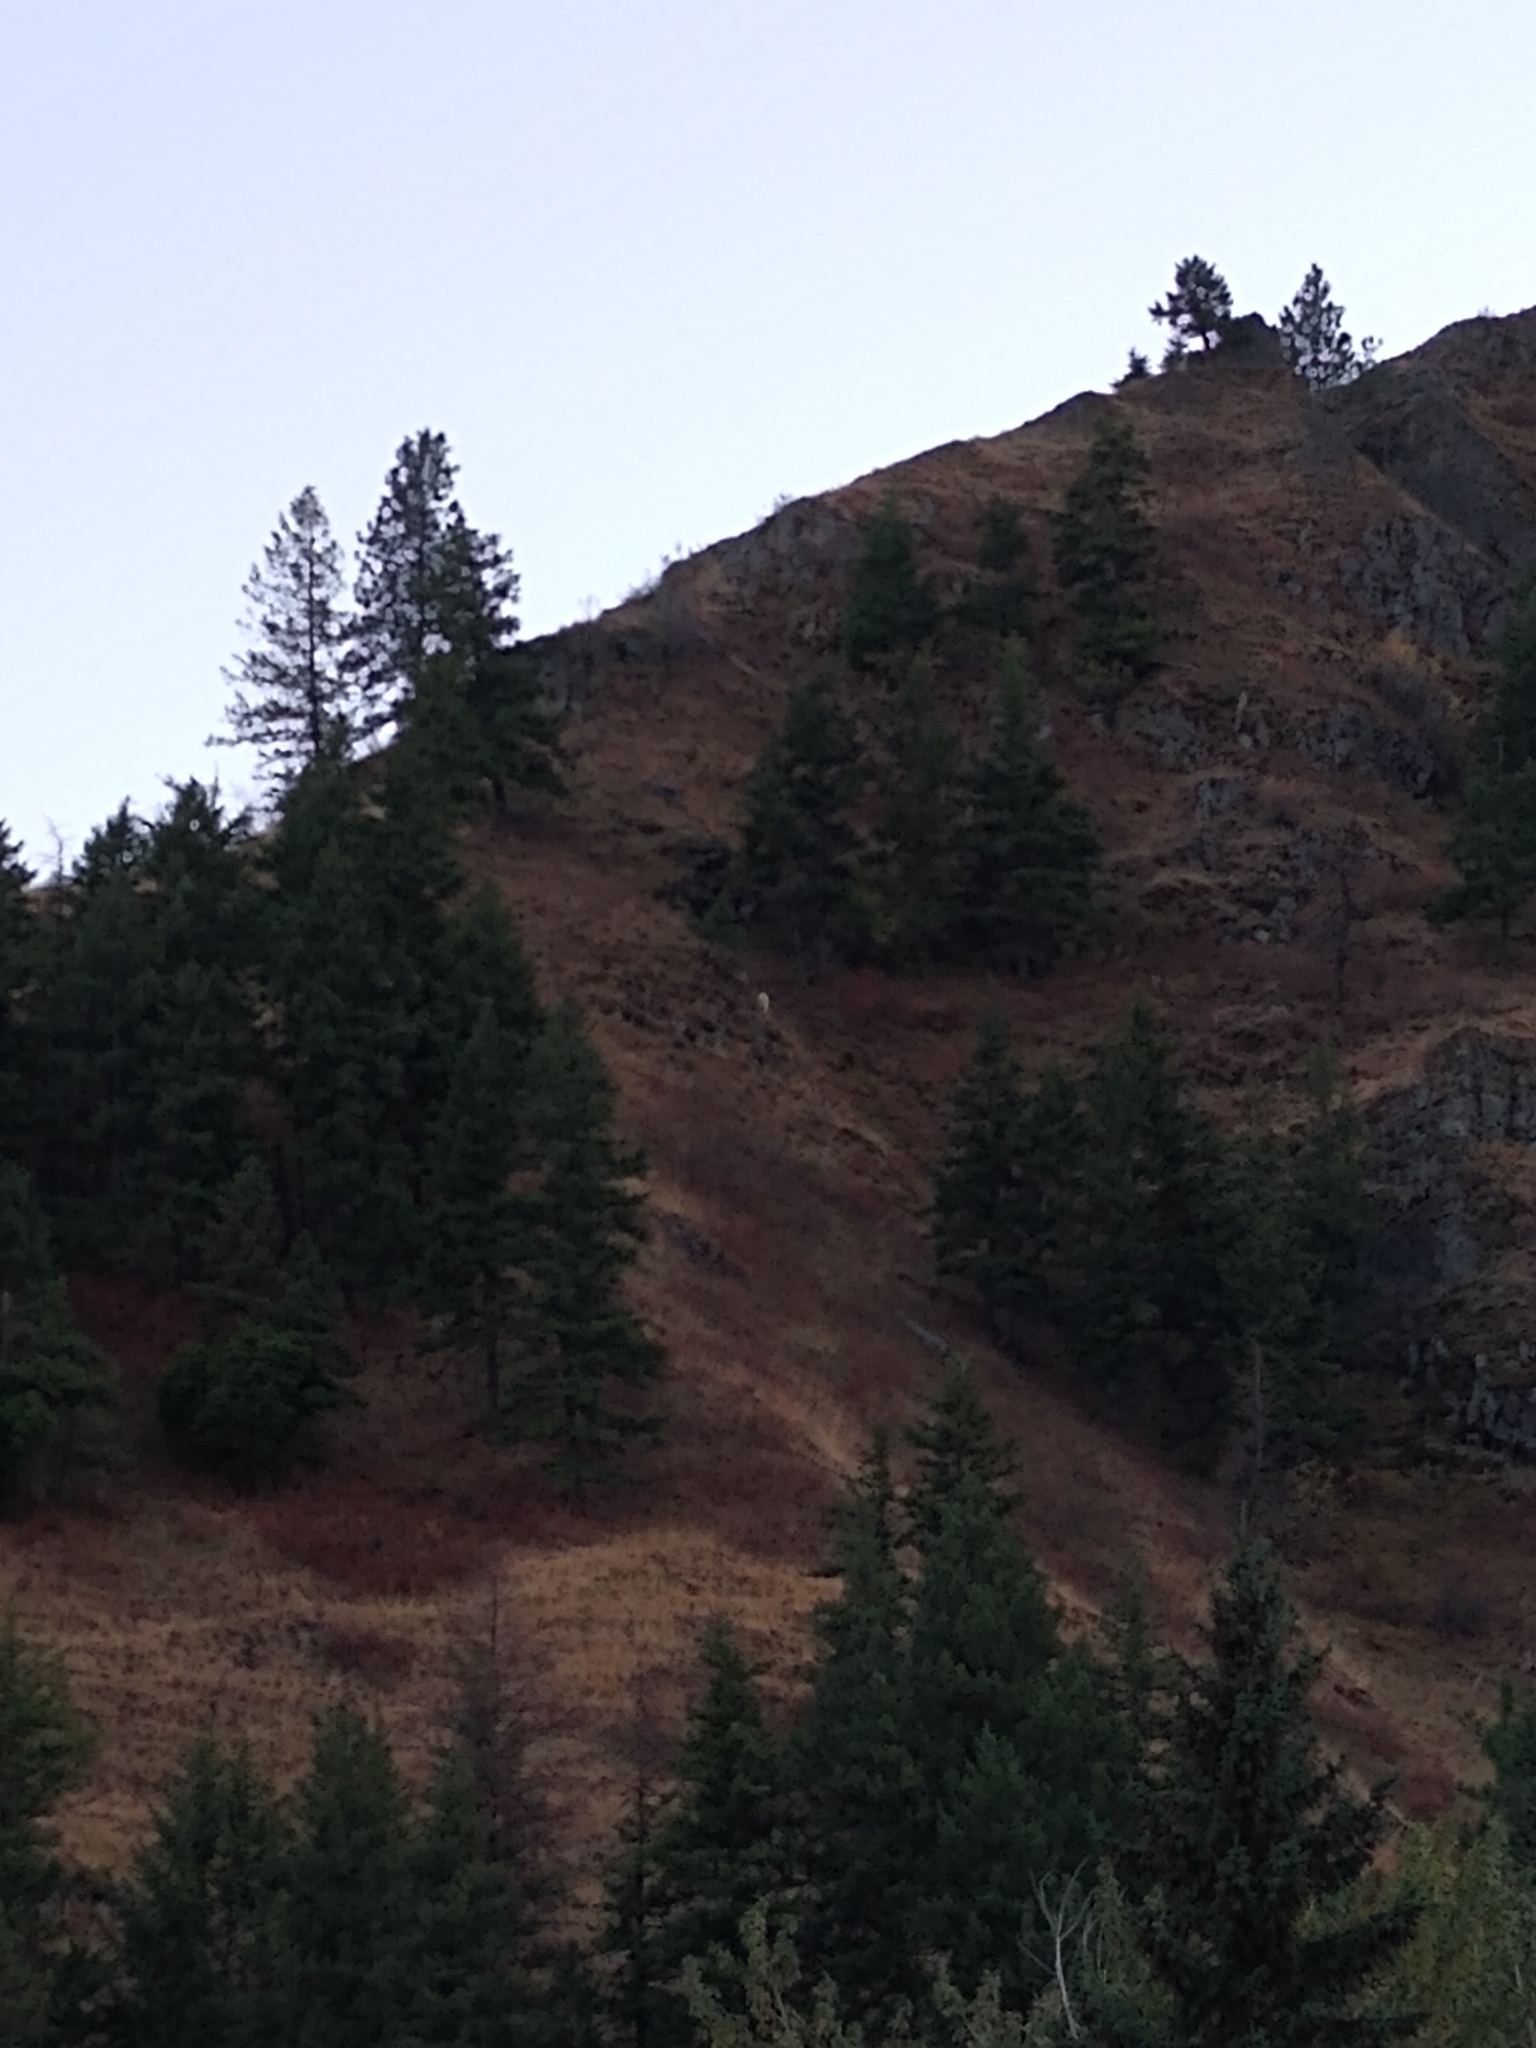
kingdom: Animalia
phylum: Chordata
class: Mammalia
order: Artiodactyla
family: Bovidae
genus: Oreamnos
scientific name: Oreamnos americanus
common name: Mountain goat
